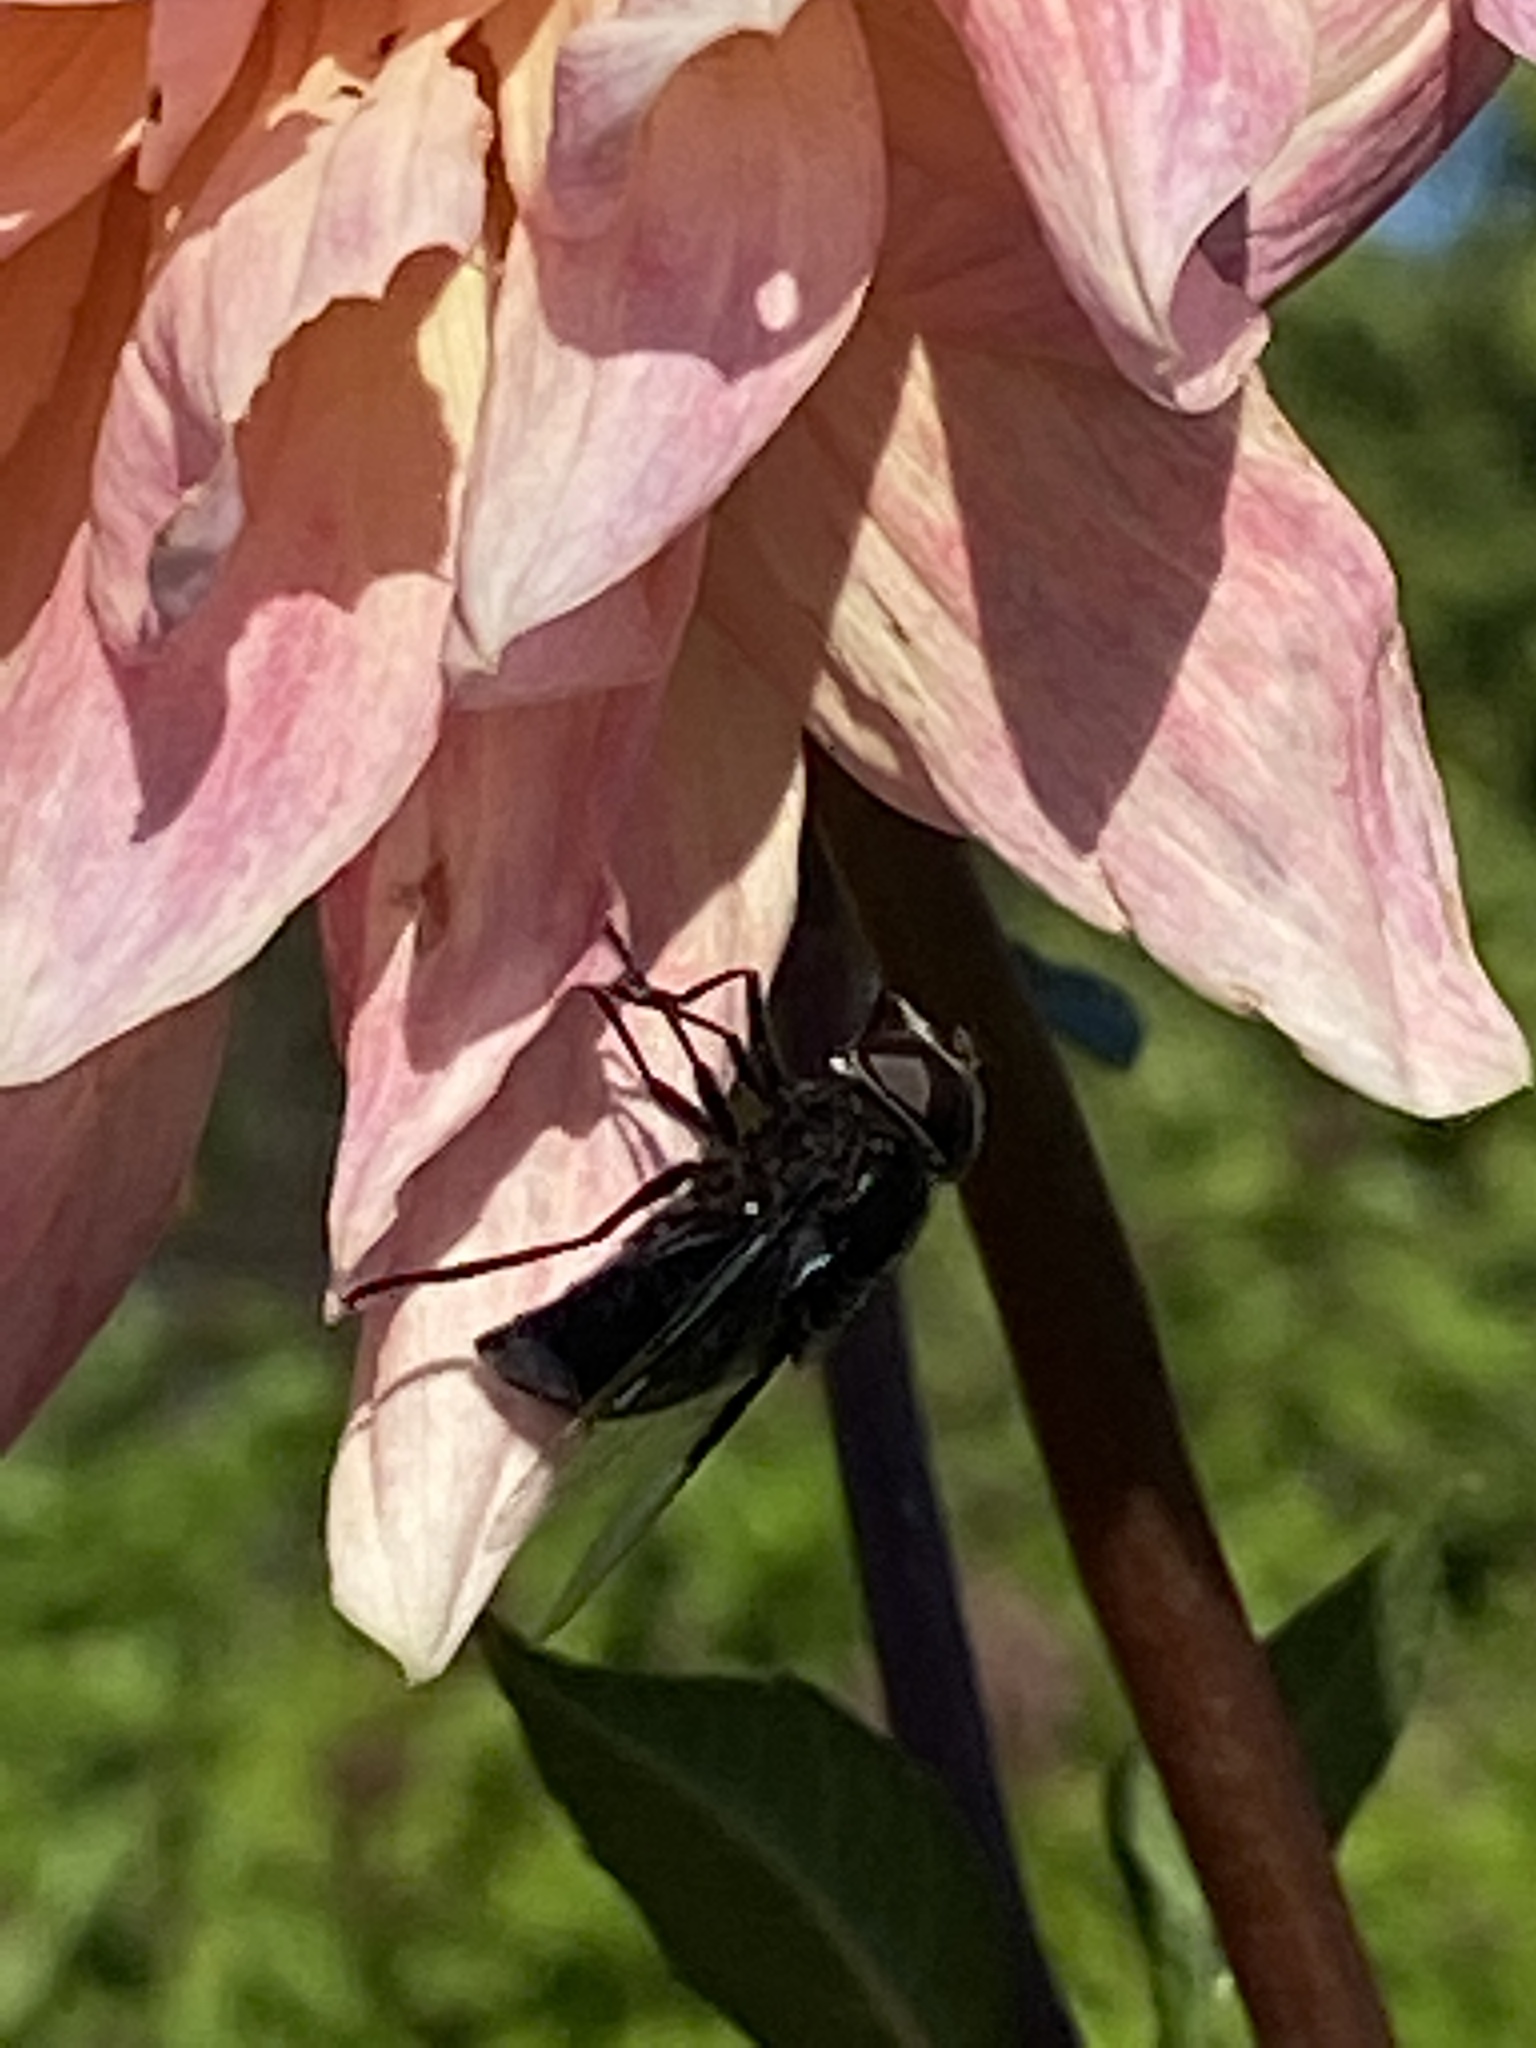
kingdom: Animalia
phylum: Arthropoda
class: Insecta
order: Diptera
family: Syrphidae
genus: Copestylum
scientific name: Copestylum mexicanum
